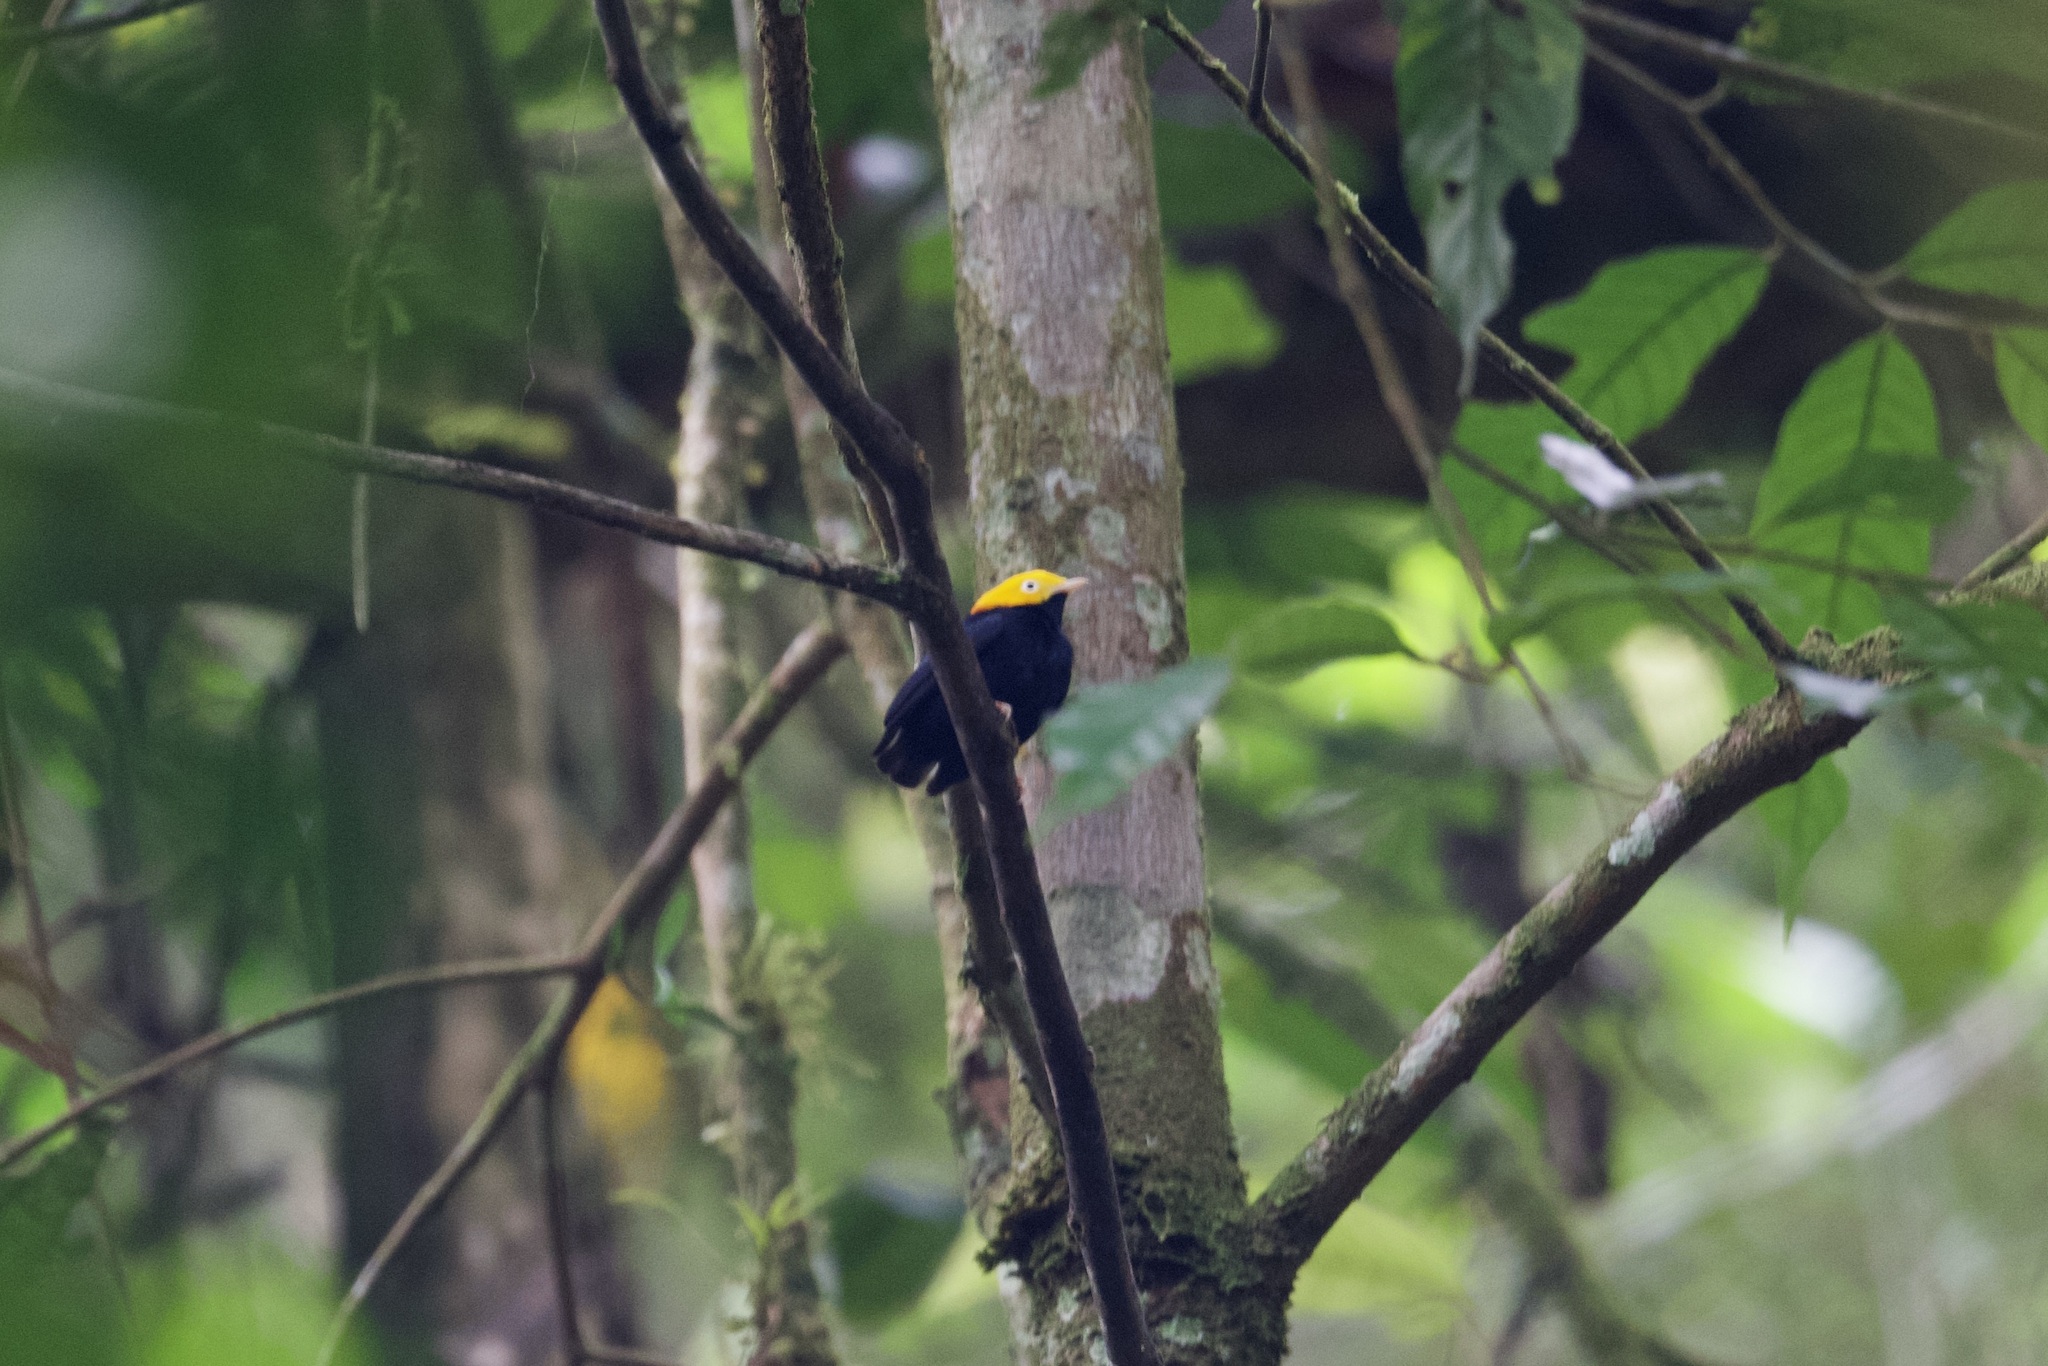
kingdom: Animalia
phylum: Chordata
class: Aves
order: Passeriformes
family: Pipridae
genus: Pipra
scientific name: Pipra erythrocephala
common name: Golden-headed manakin
